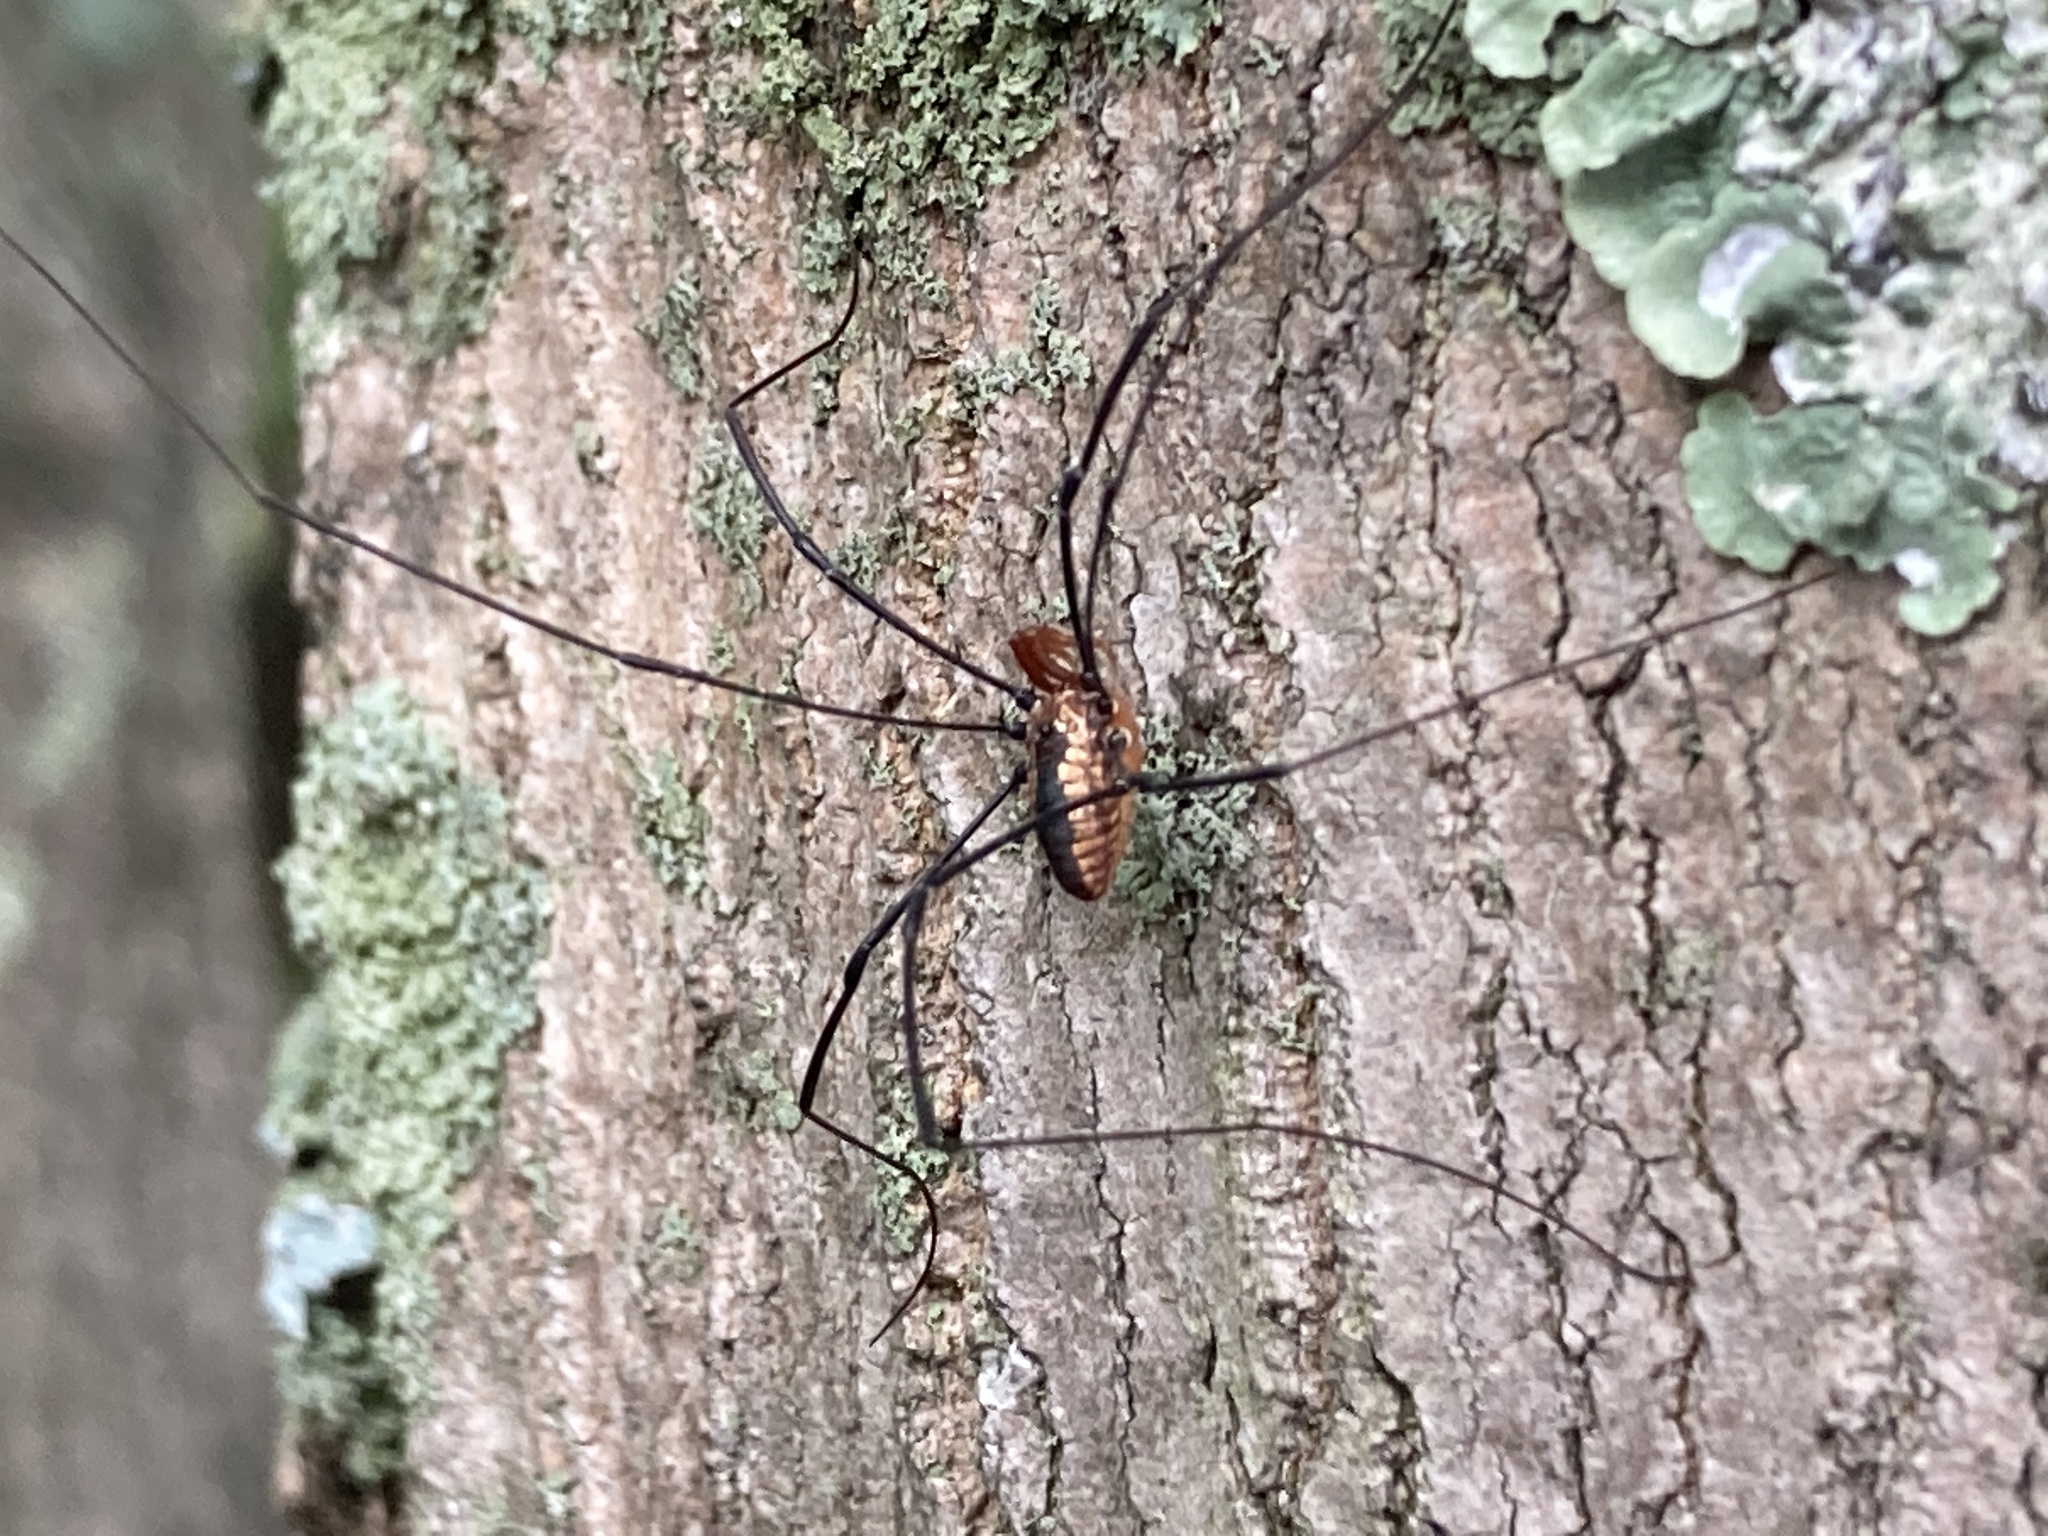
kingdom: Animalia
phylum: Arthropoda
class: Arachnida
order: Opiliones
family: Sclerosomatidae
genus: Leiobunum
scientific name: Leiobunum vittatum
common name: Eastern harvestman
